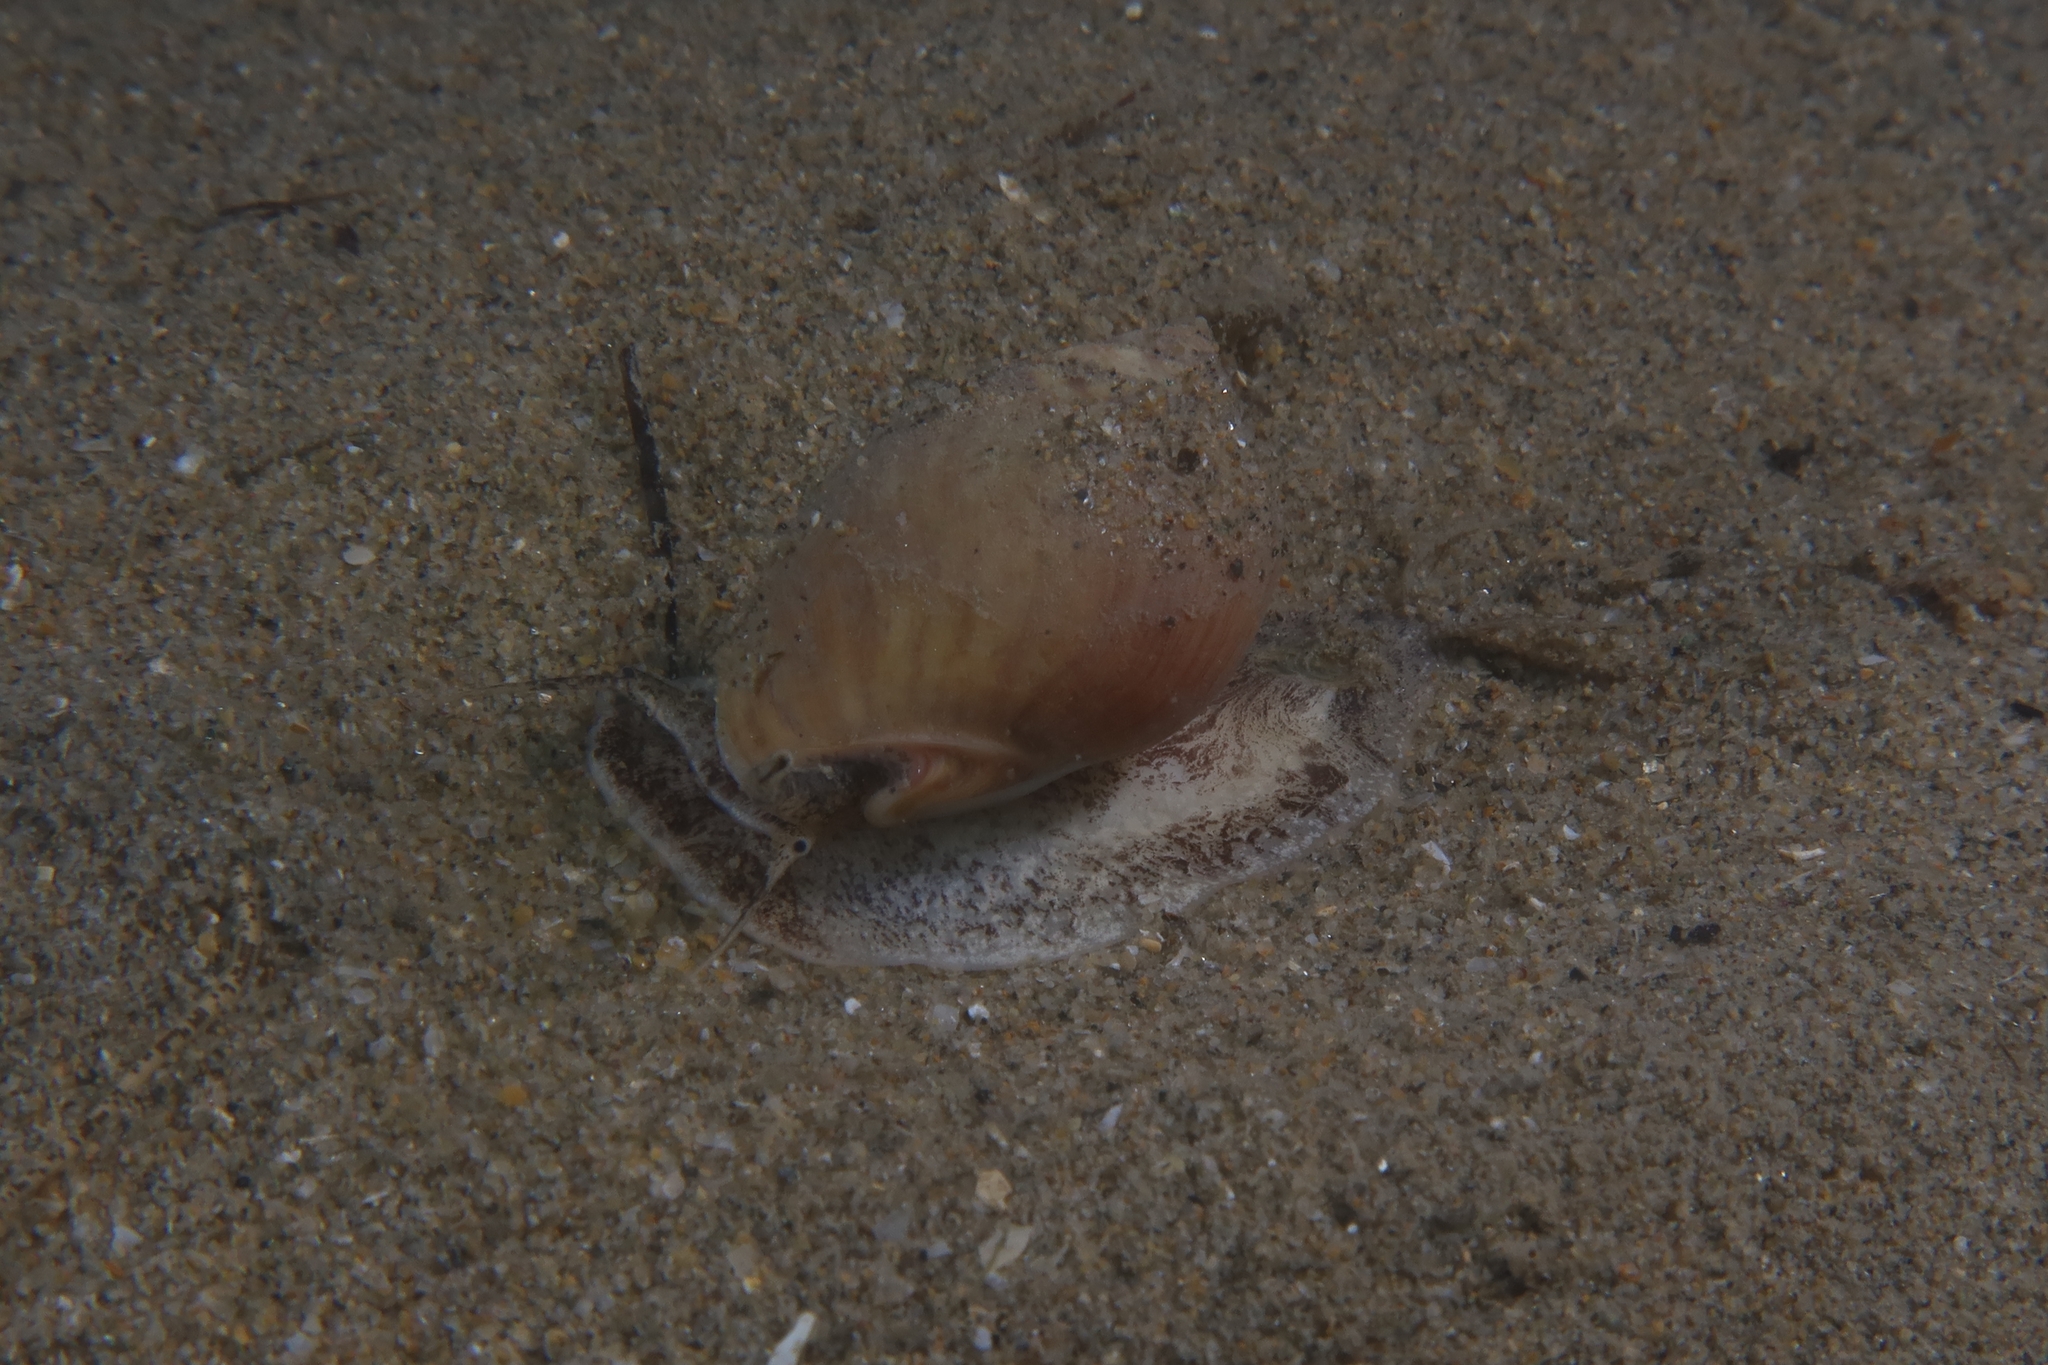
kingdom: Animalia
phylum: Mollusca
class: Gastropoda
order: Neogastropoda
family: Nassariidae
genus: Tritia
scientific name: Tritia mutabilis
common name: Mutable nassa
